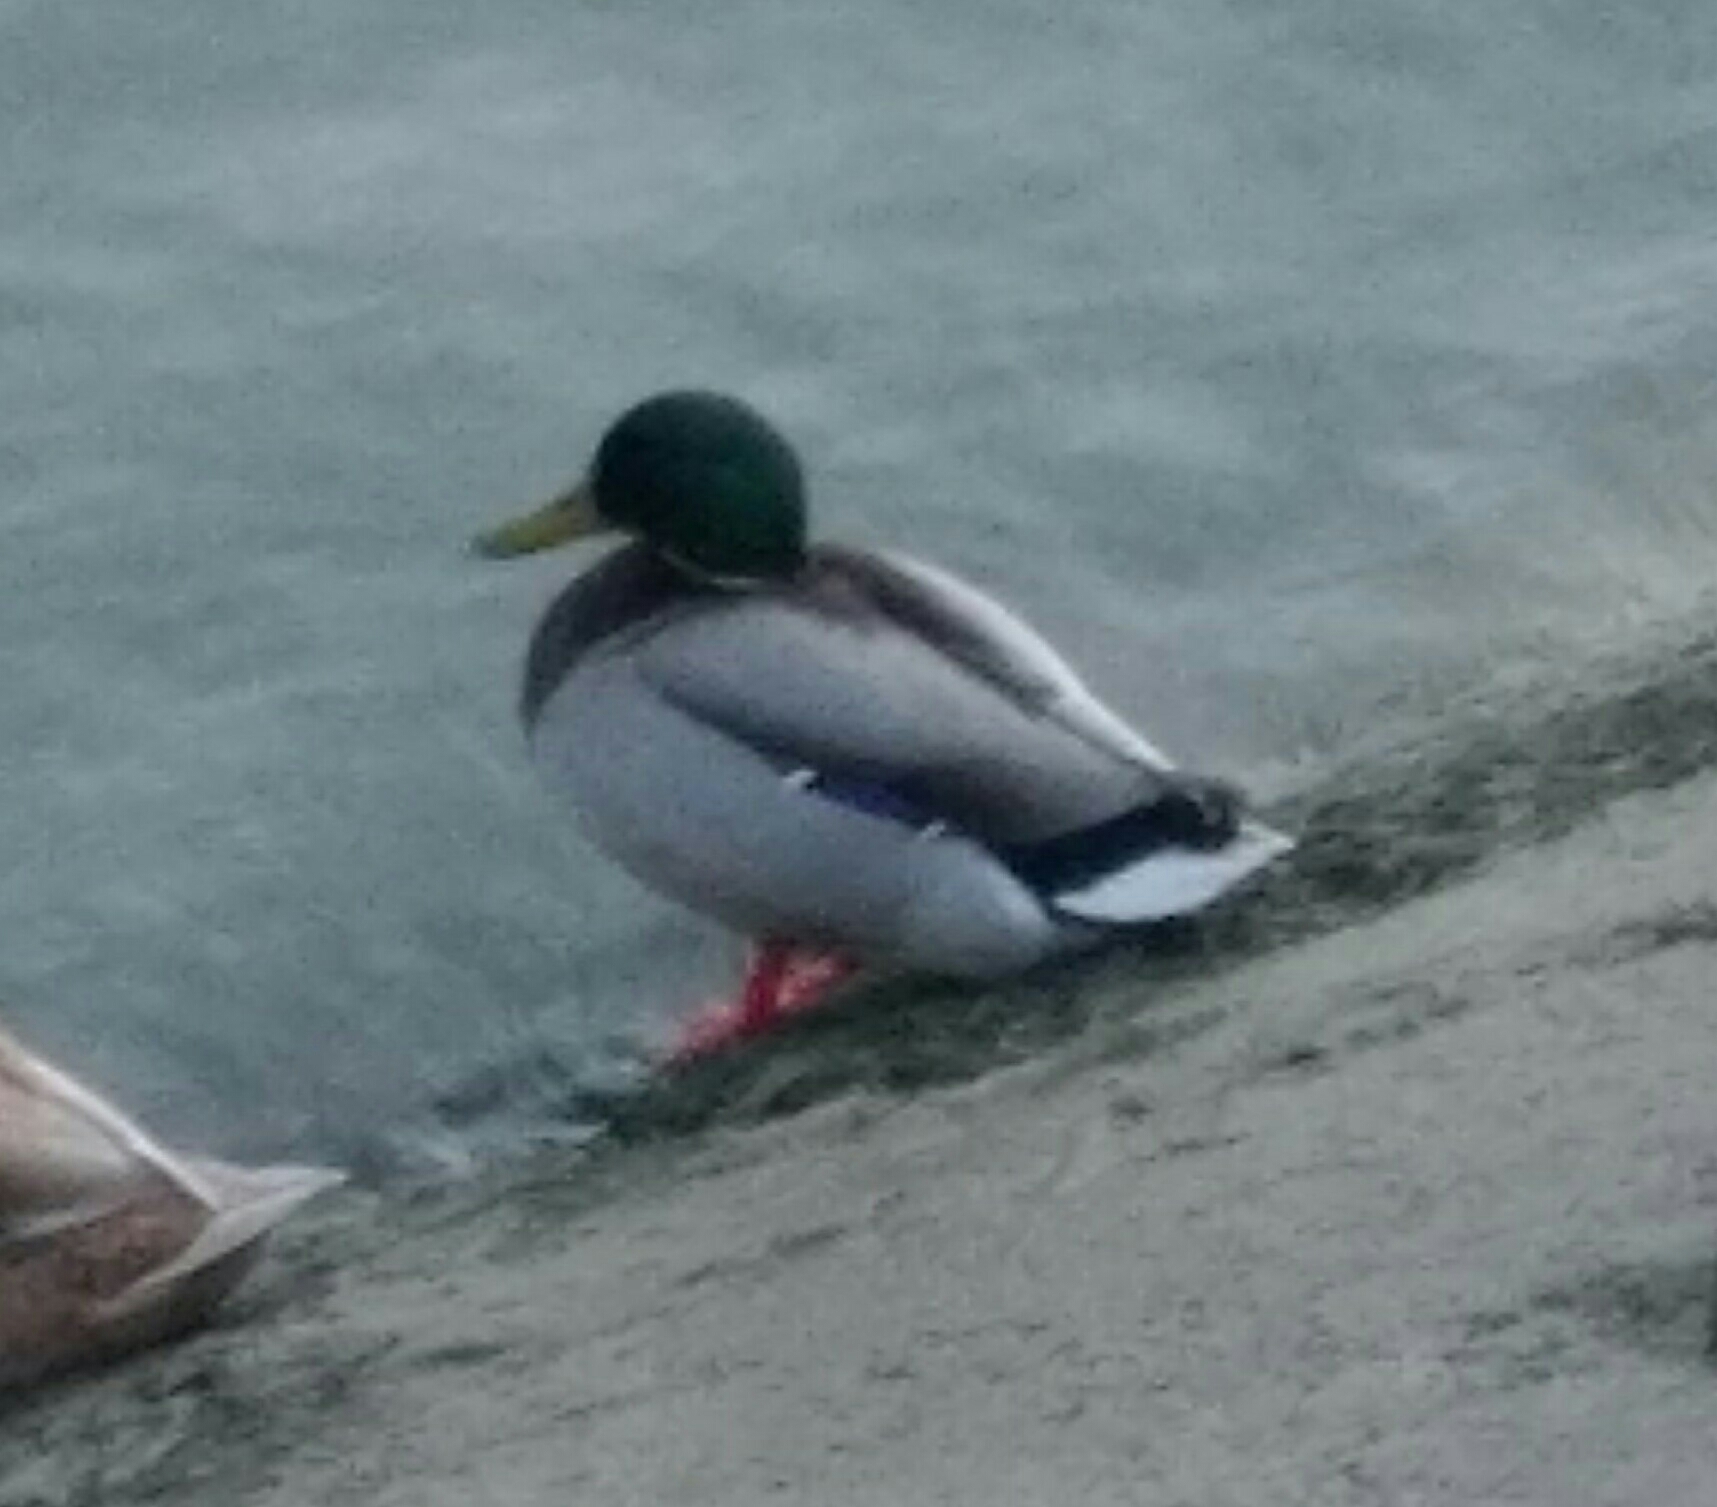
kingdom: Animalia
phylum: Chordata
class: Aves
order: Anseriformes
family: Anatidae
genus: Anas
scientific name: Anas platyrhynchos
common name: Mallard
